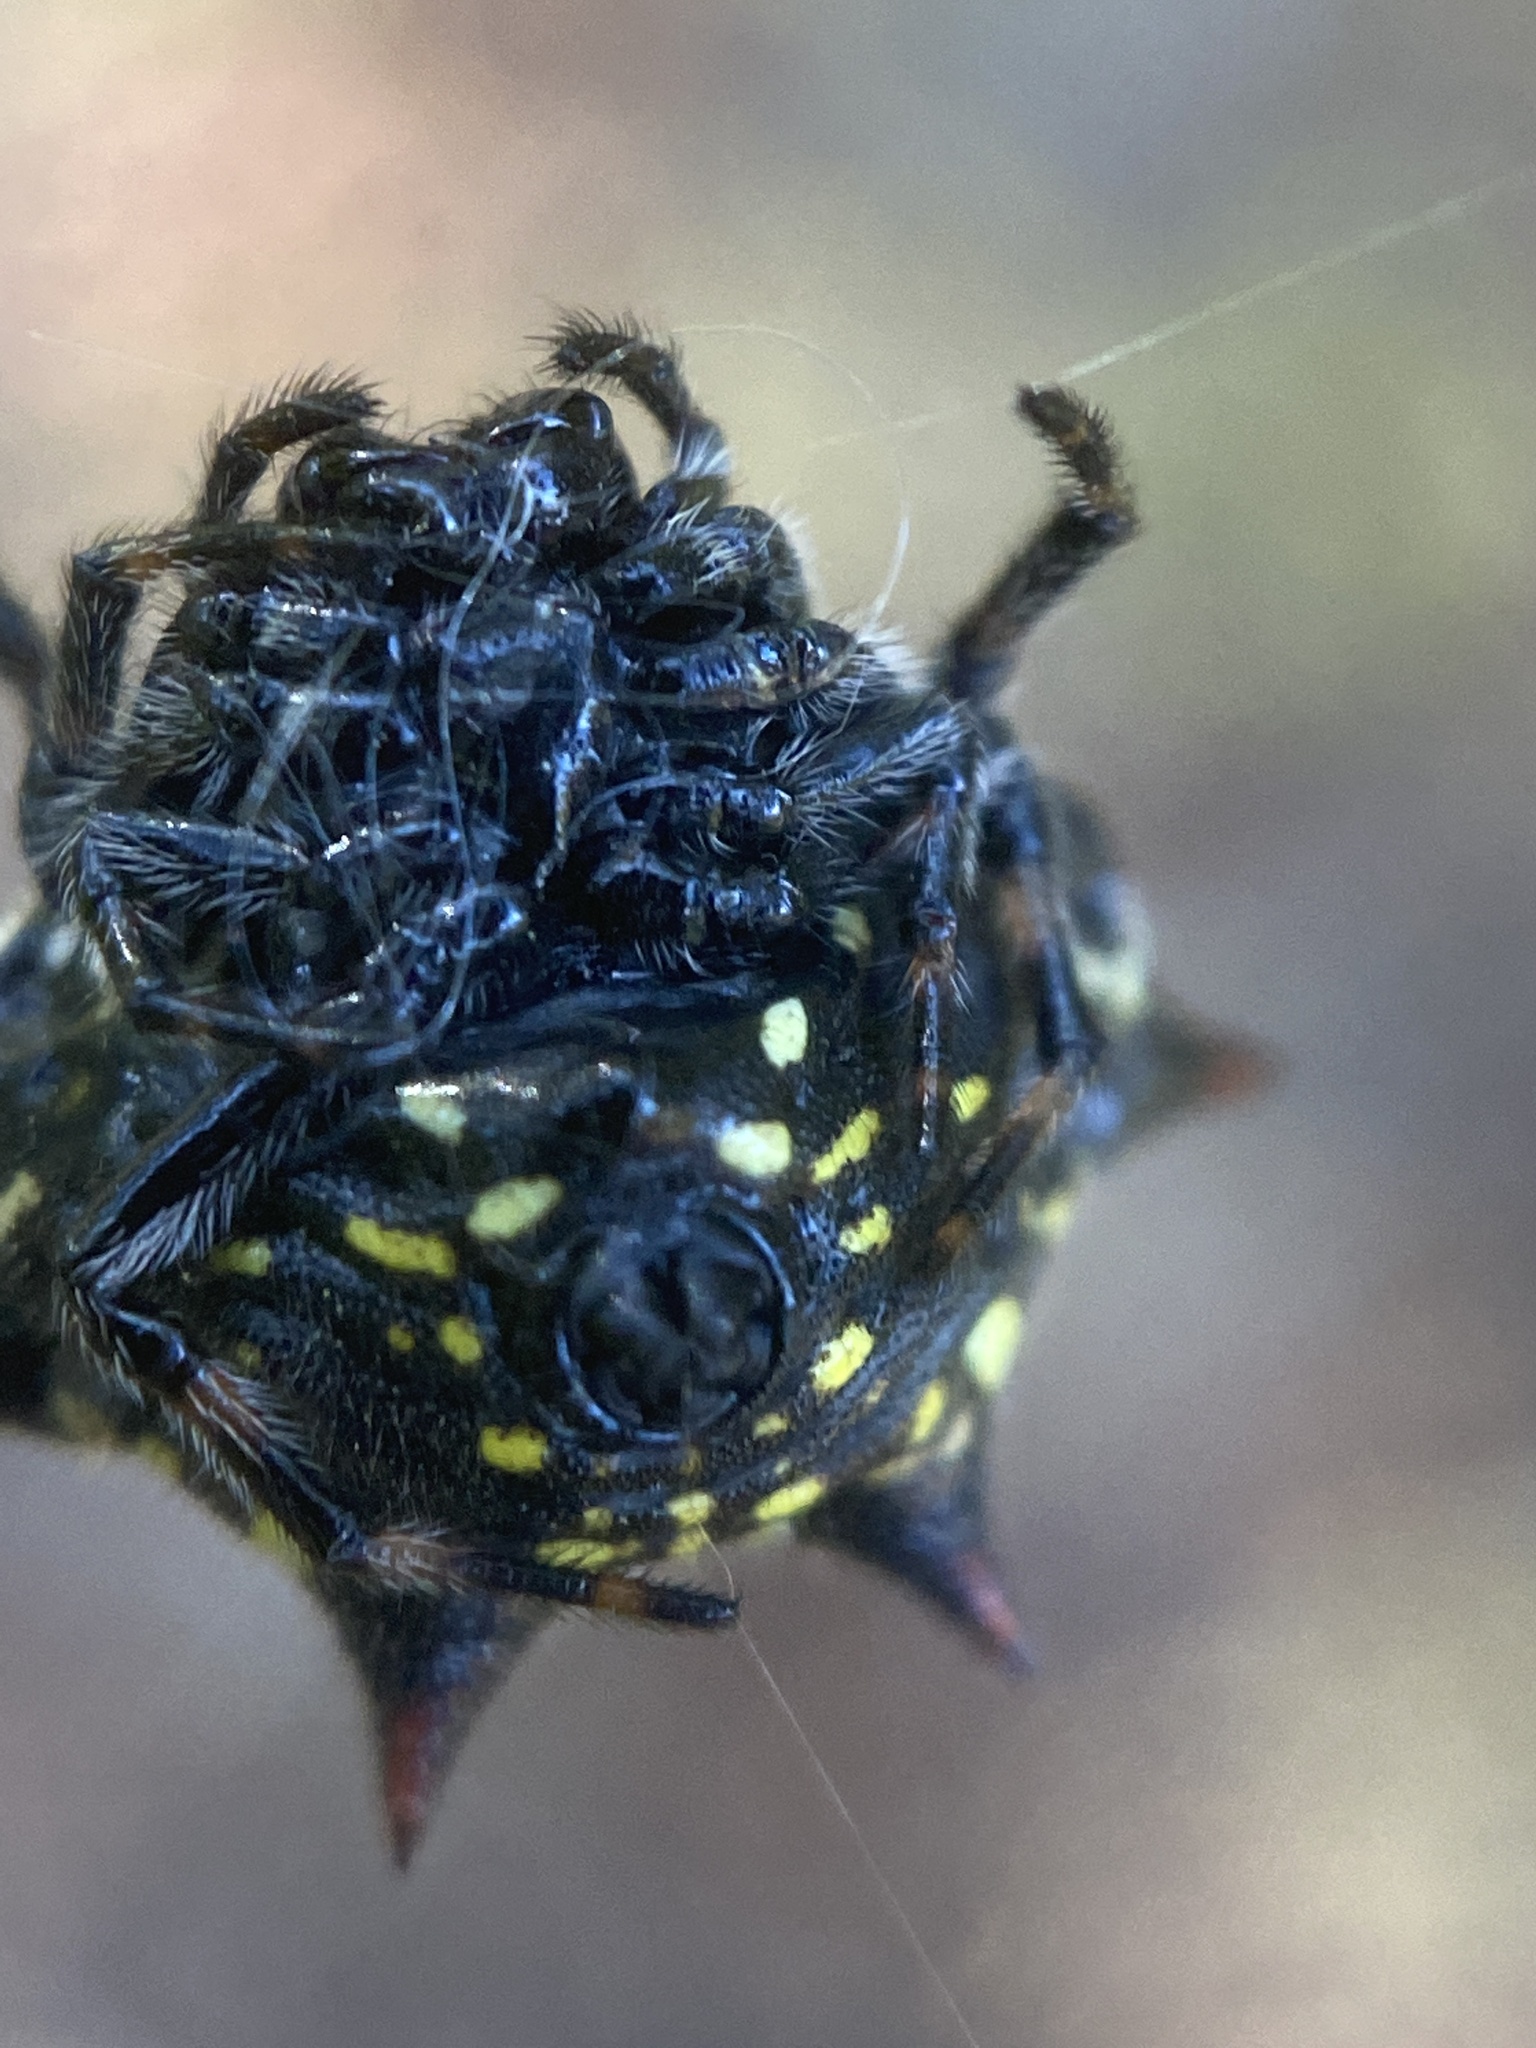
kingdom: Animalia
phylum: Arthropoda
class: Arachnida
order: Araneae
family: Araneidae
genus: Gasteracantha
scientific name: Gasteracantha cancriformis
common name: Orb weavers
